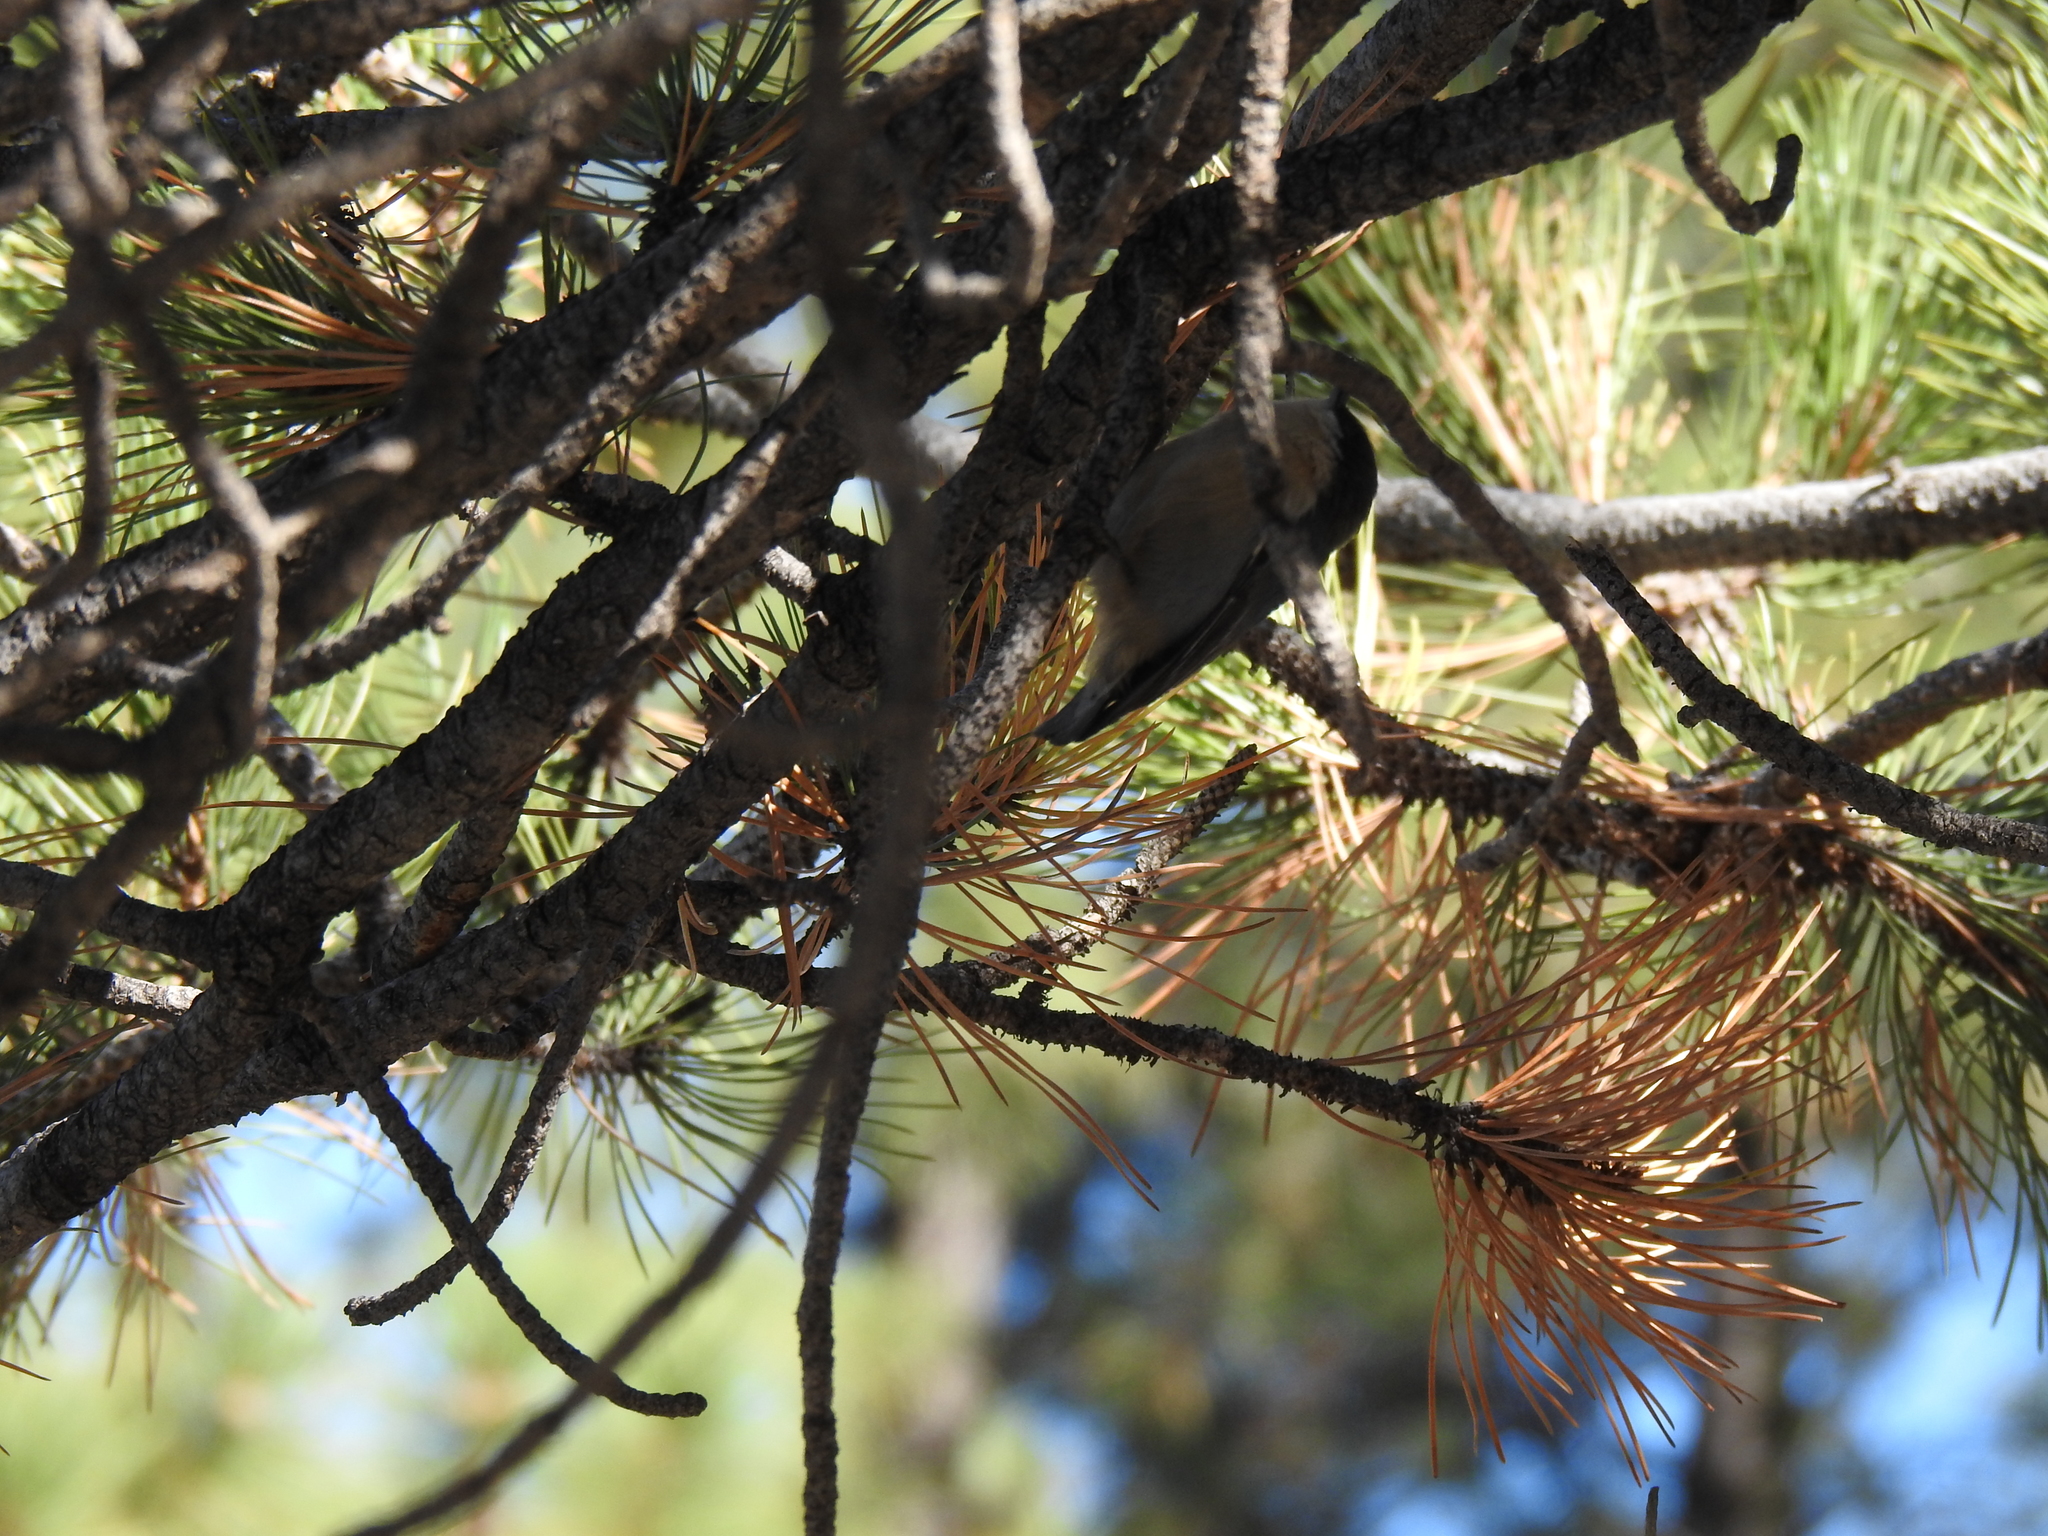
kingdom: Animalia
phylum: Chordata
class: Aves
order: Passeriformes
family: Sittidae
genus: Sitta
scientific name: Sitta pygmaea
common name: Pygmy nuthatch
